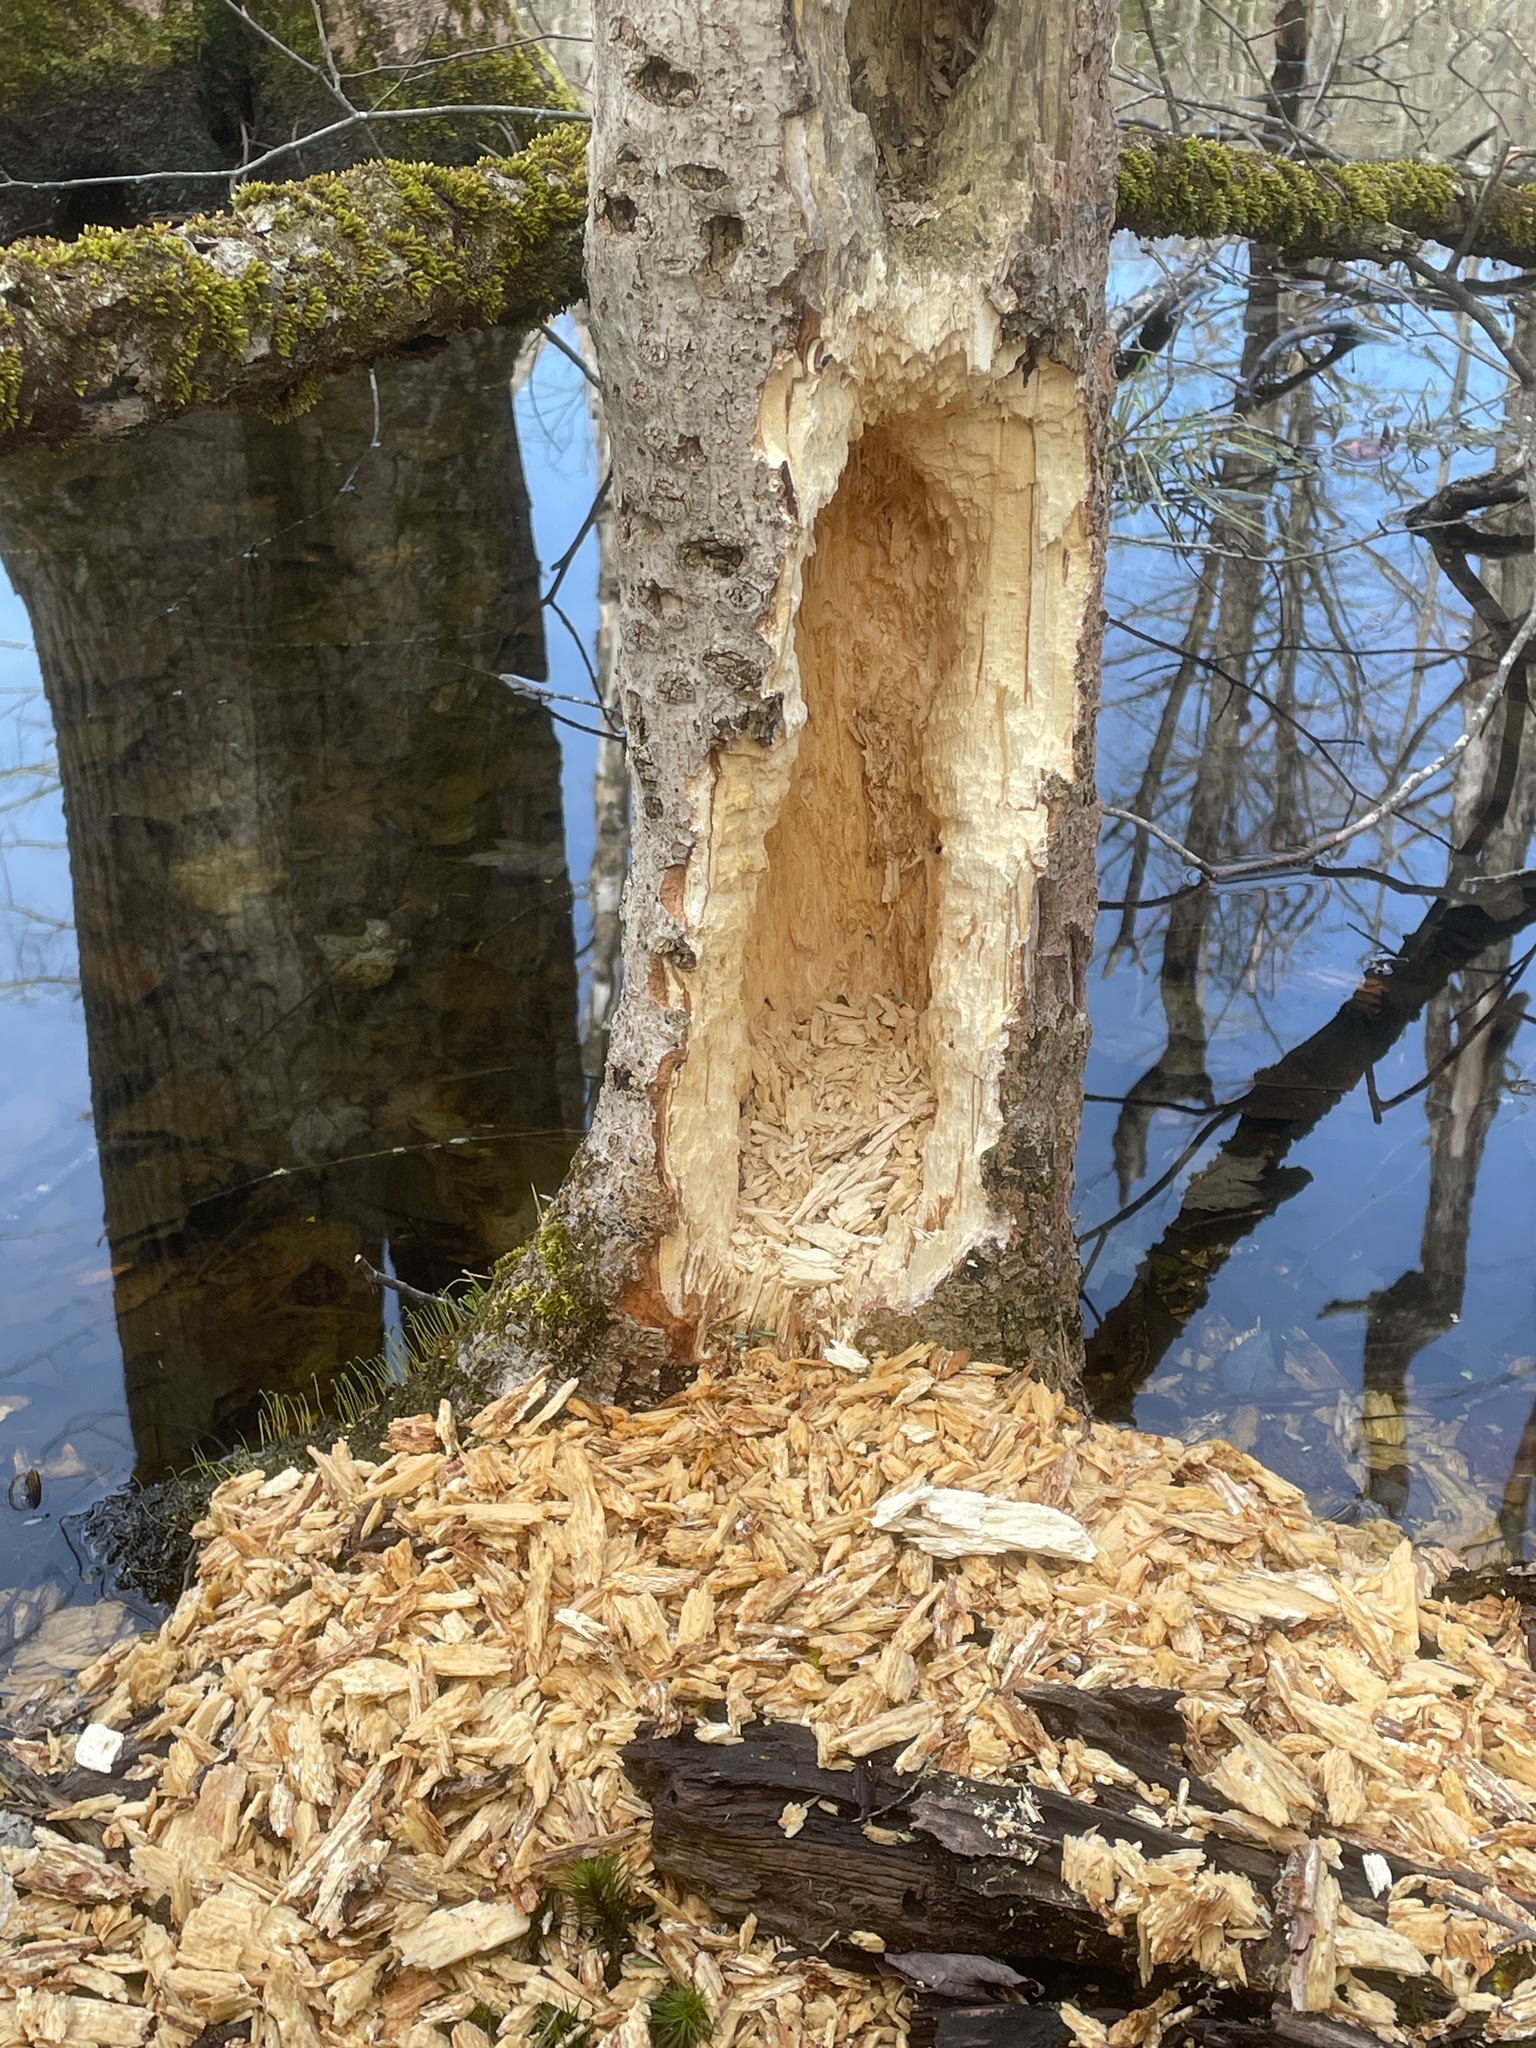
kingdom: Animalia
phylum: Chordata
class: Aves
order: Piciformes
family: Picidae
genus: Dryocopus
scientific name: Dryocopus pileatus
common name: Pileated woodpecker
